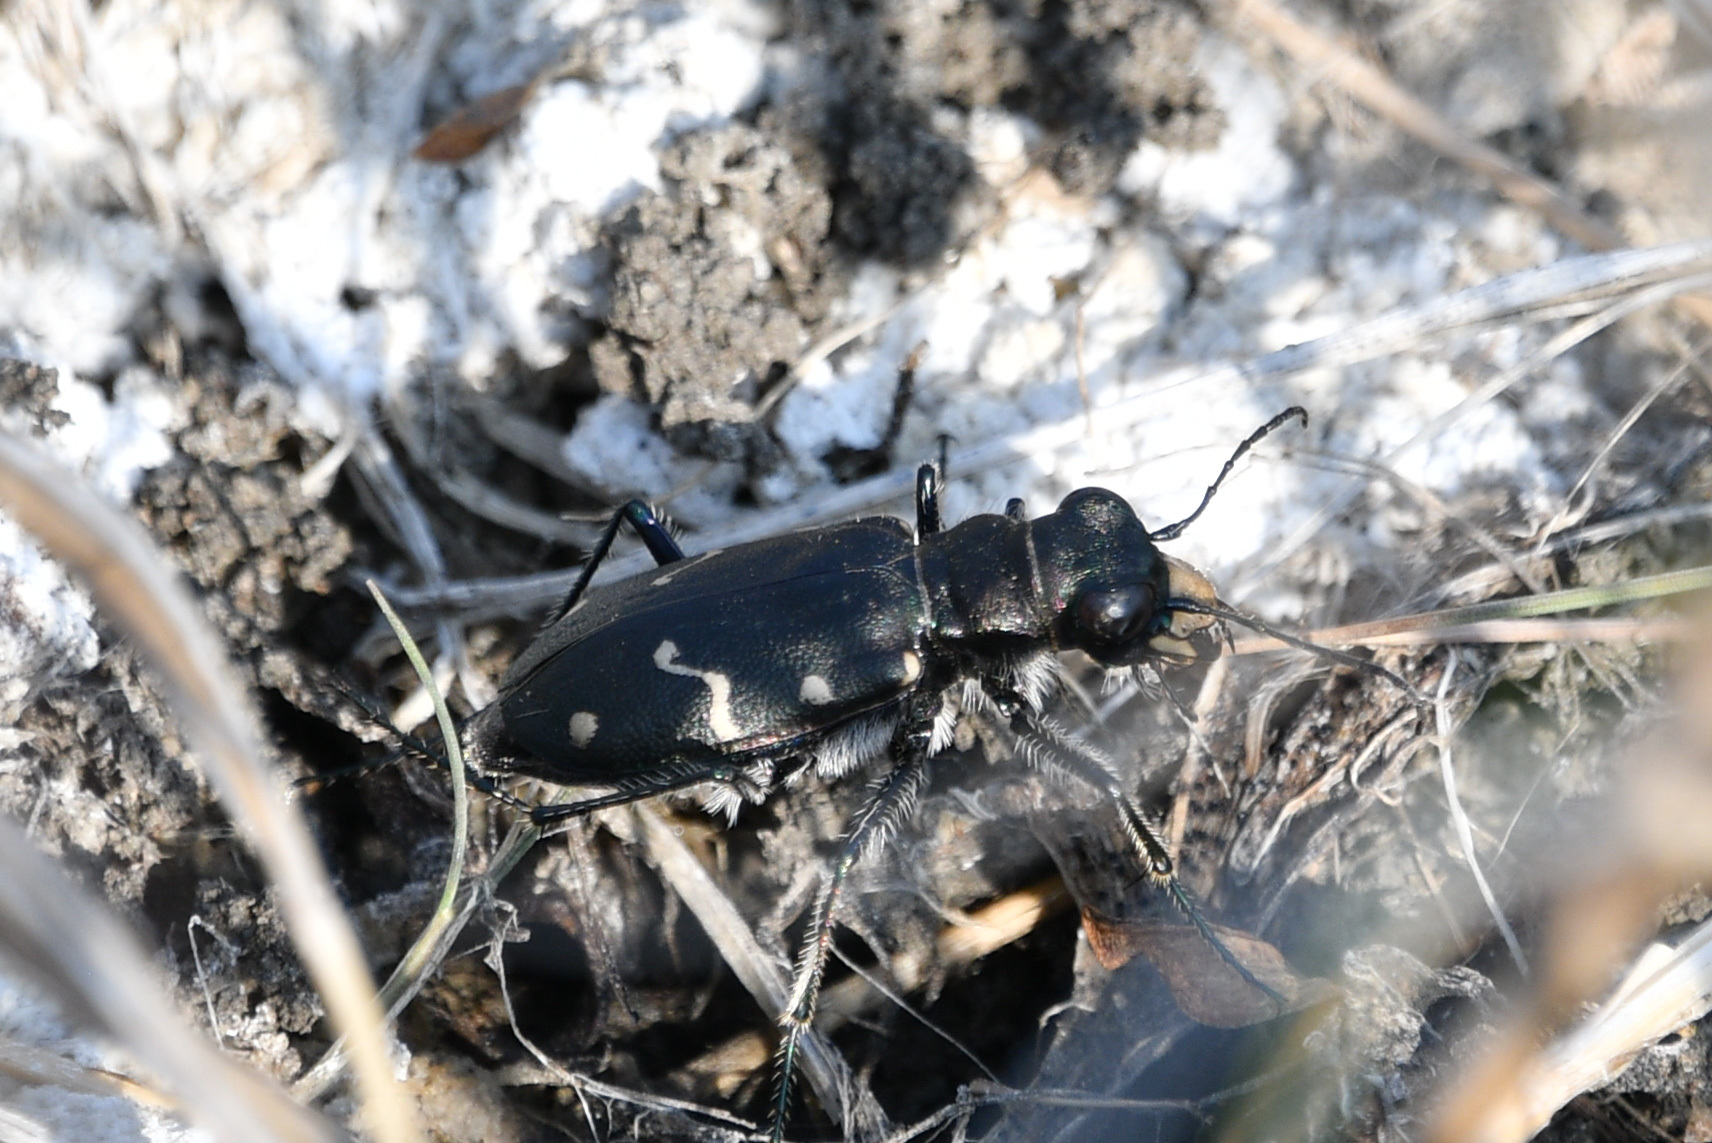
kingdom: Animalia
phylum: Arthropoda
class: Insecta
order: Coleoptera
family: Carabidae
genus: Cicindela
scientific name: Cicindela longilabris
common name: Boreal long-lipped tiger beetle
